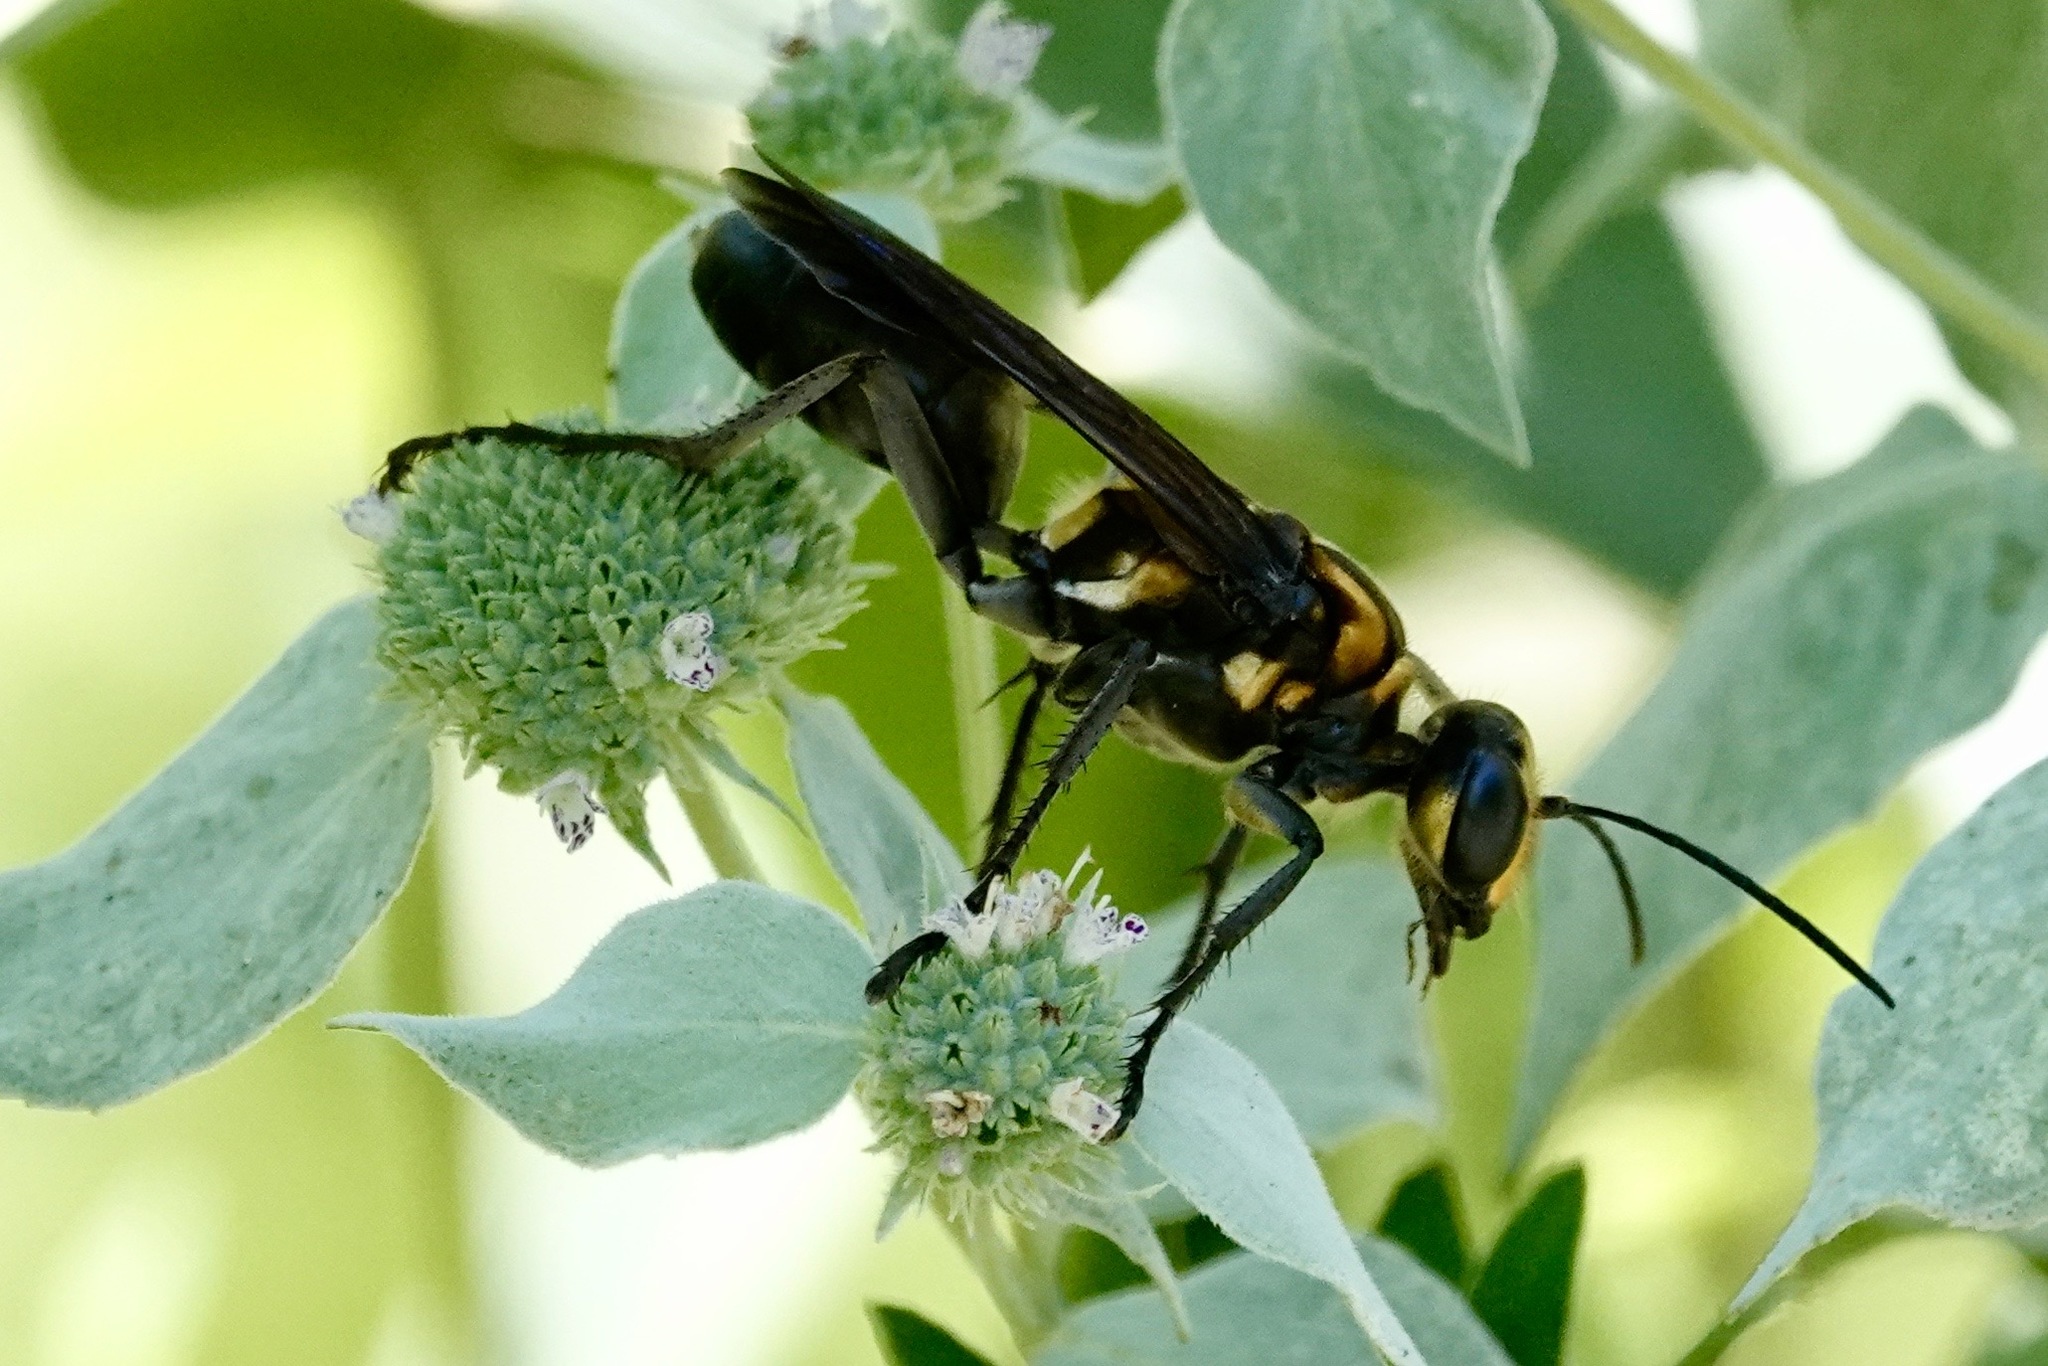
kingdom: Animalia
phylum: Arthropoda
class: Insecta
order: Hymenoptera
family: Sphecidae
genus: Sphex
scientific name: Sphex habenus
